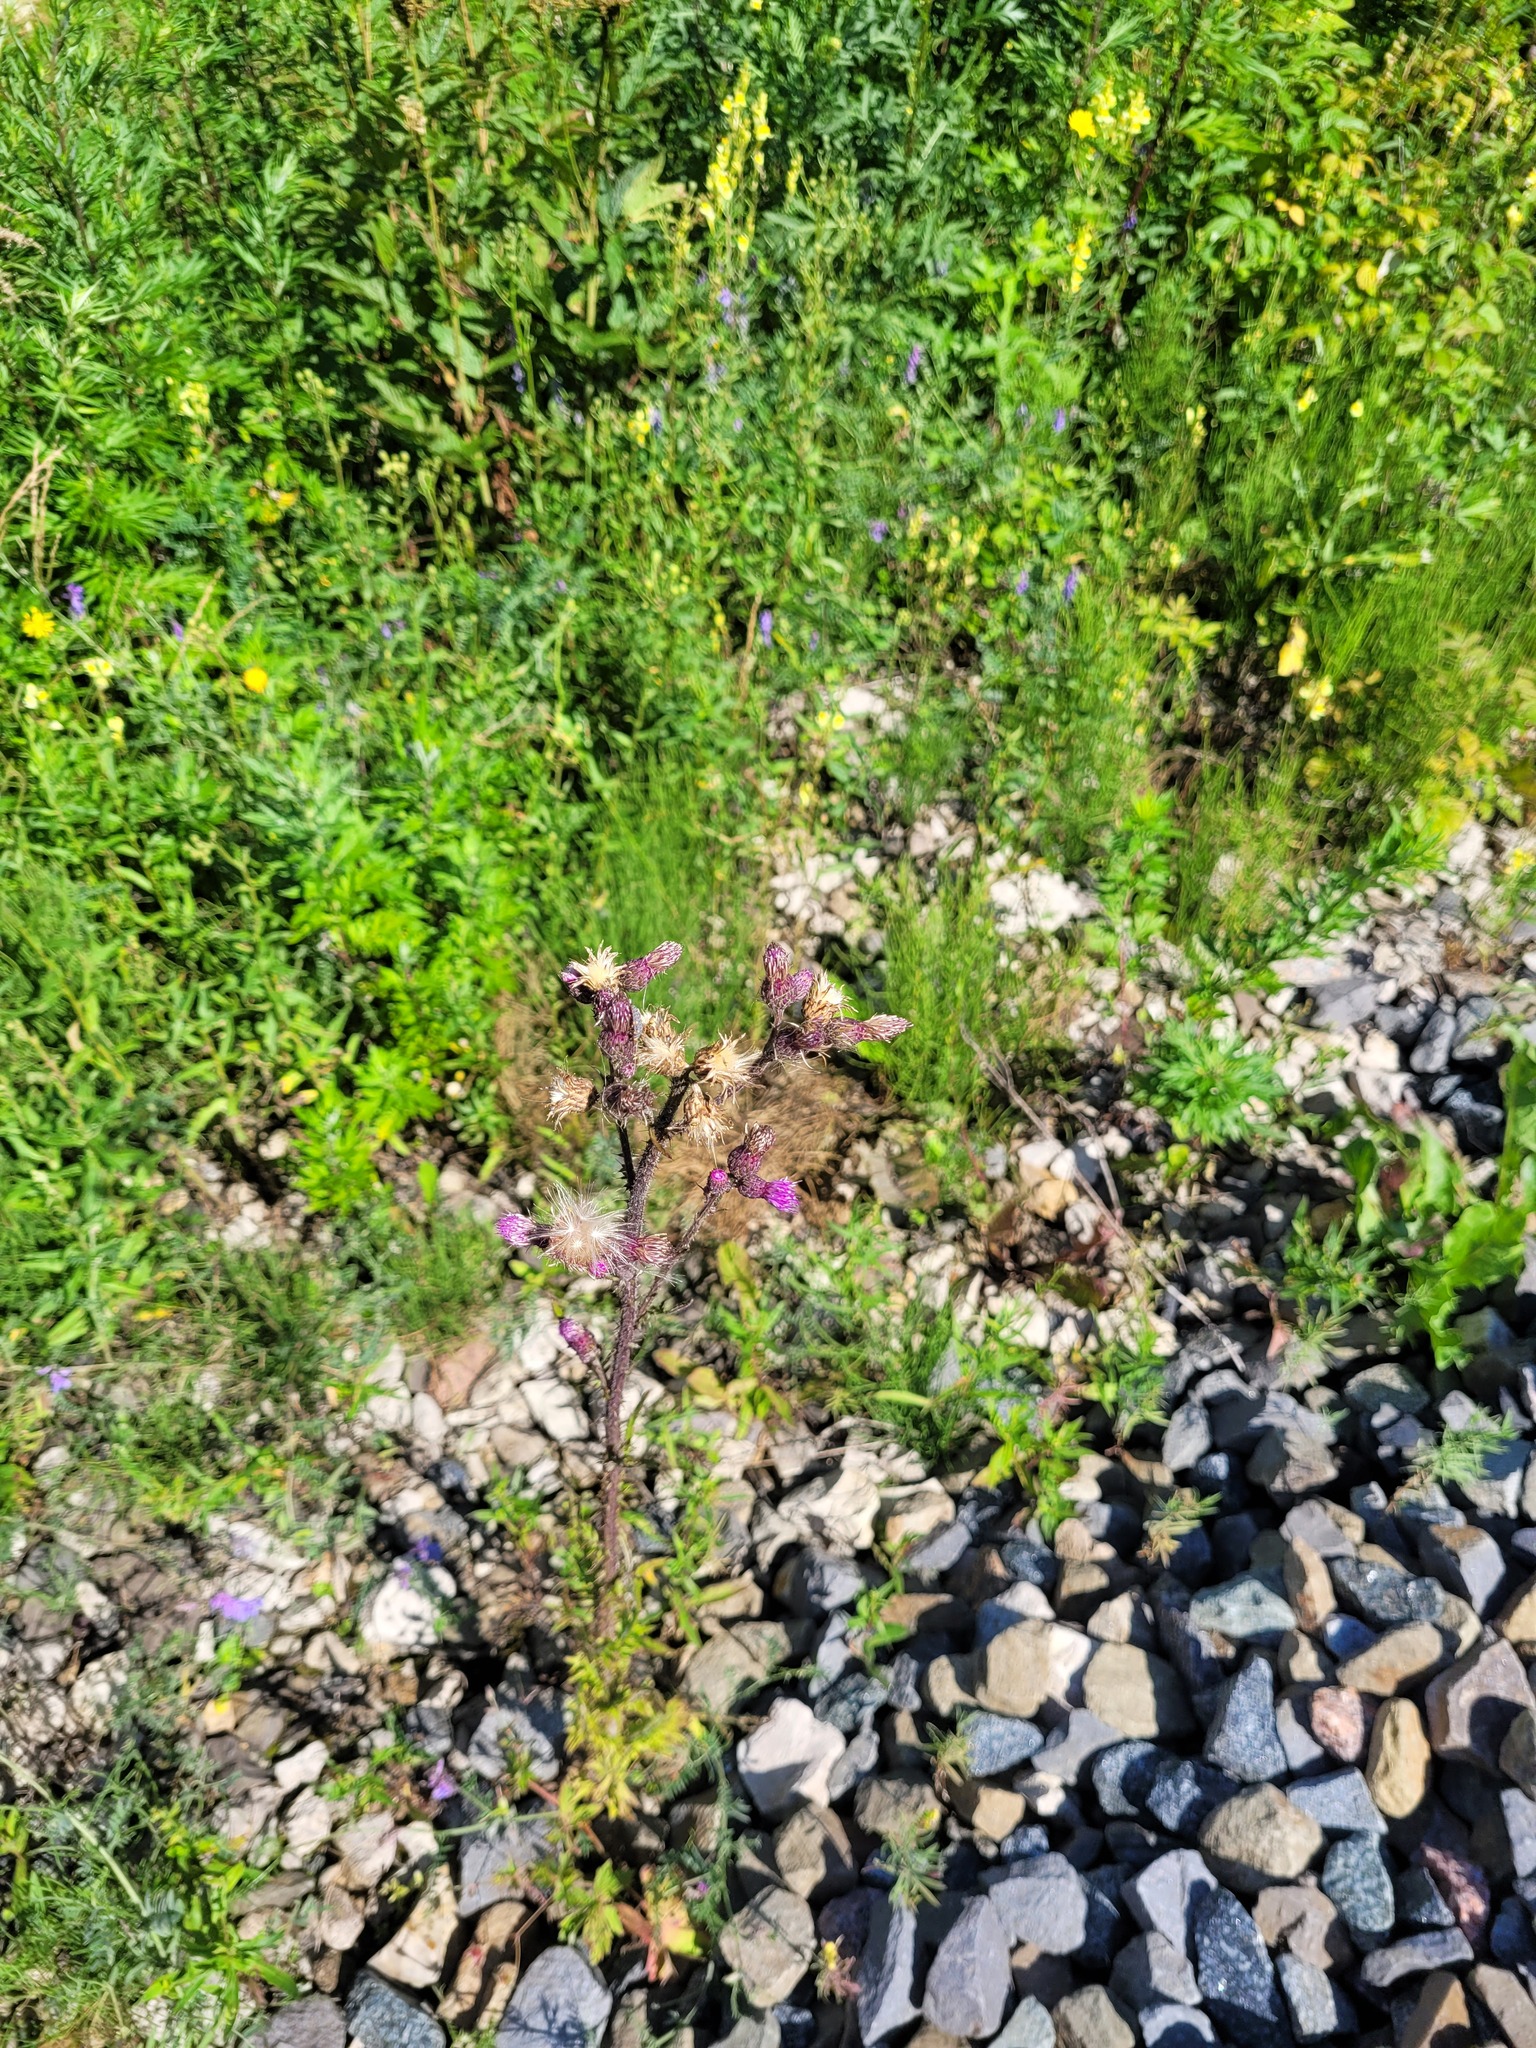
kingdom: Plantae
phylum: Tracheophyta
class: Magnoliopsida
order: Asterales
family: Asteraceae
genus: Cirsium
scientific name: Cirsium palustre
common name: Marsh thistle
